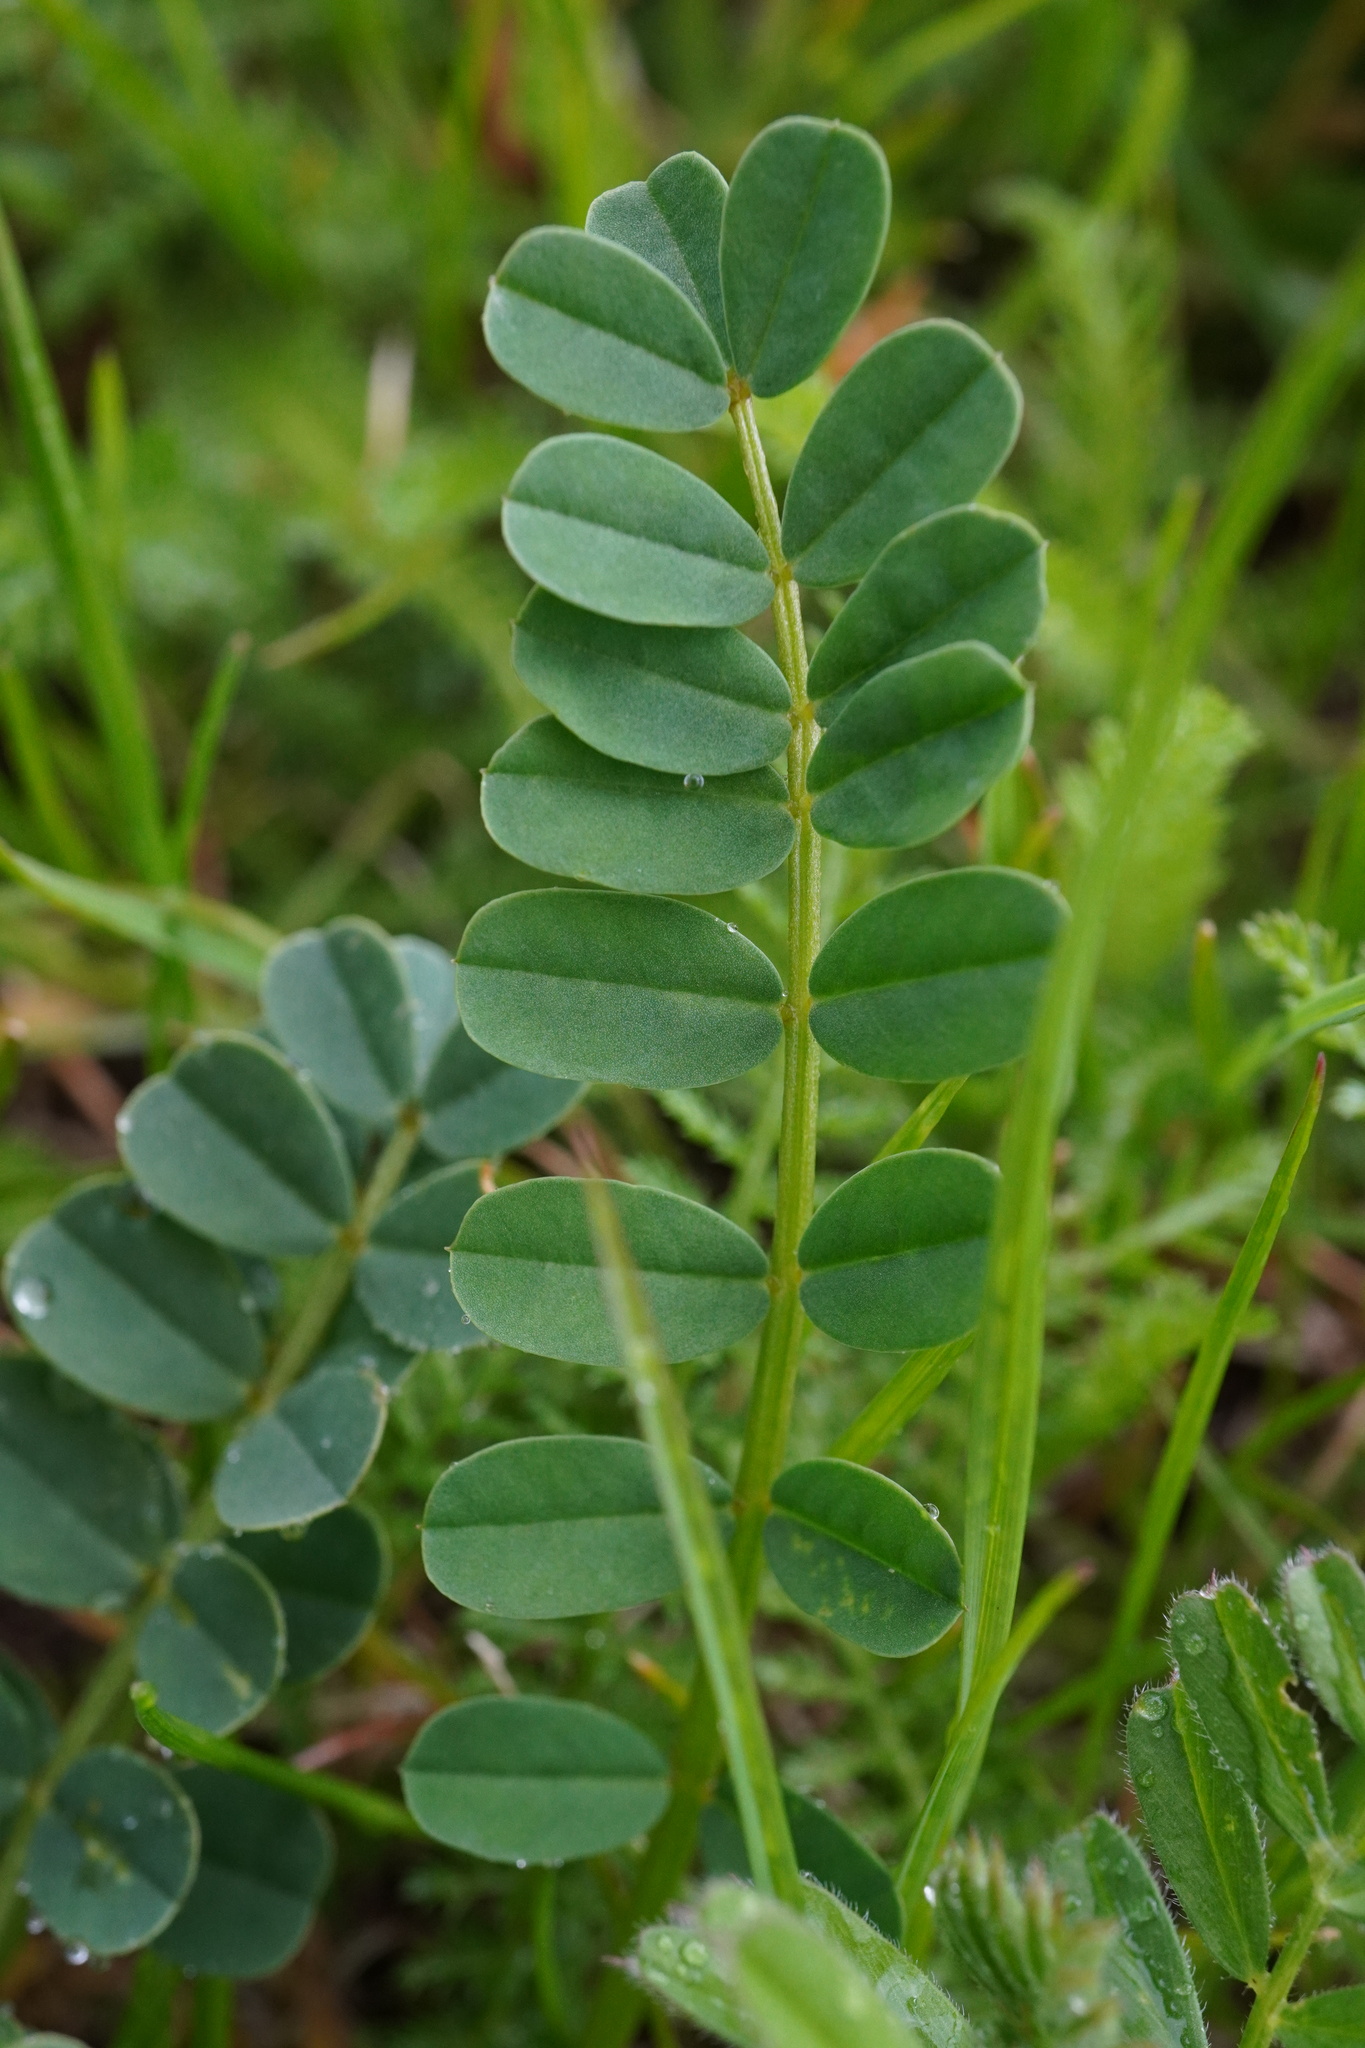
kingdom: Plantae
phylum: Tracheophyta
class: Magnoliopsida
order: Fabales
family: Fabaceae
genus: Coronilla
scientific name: Coronilla varia
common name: Crownvetch
